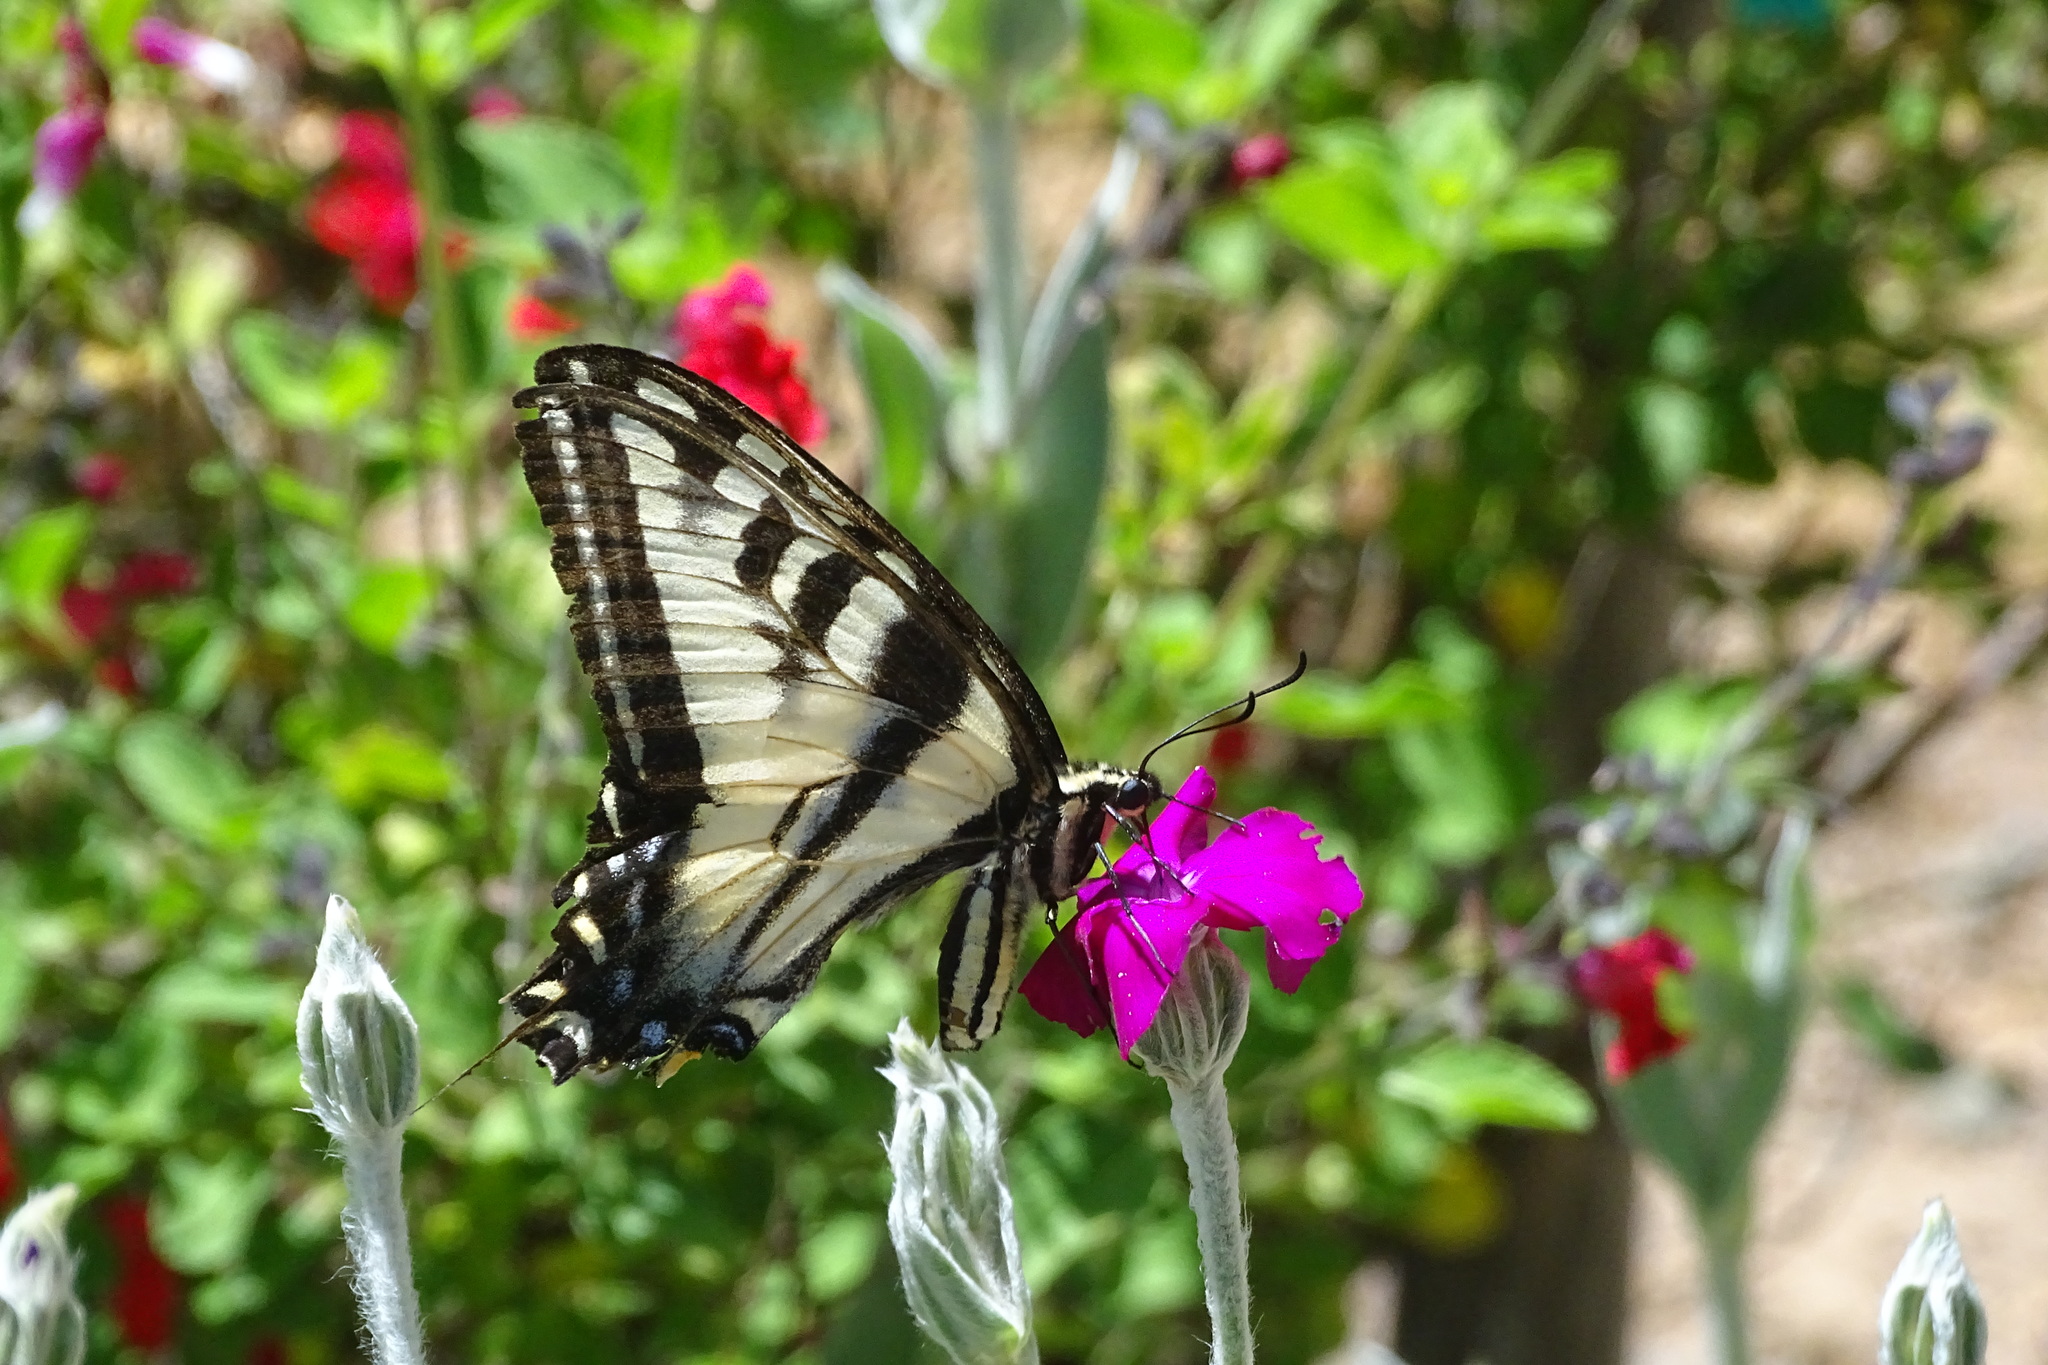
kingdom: Animalia
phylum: Arthropoda
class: Insecta
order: Lepidoptera
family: Papilionidae
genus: Papilio
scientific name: Papilio eurymedon
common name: Pale tiger swallowtail
